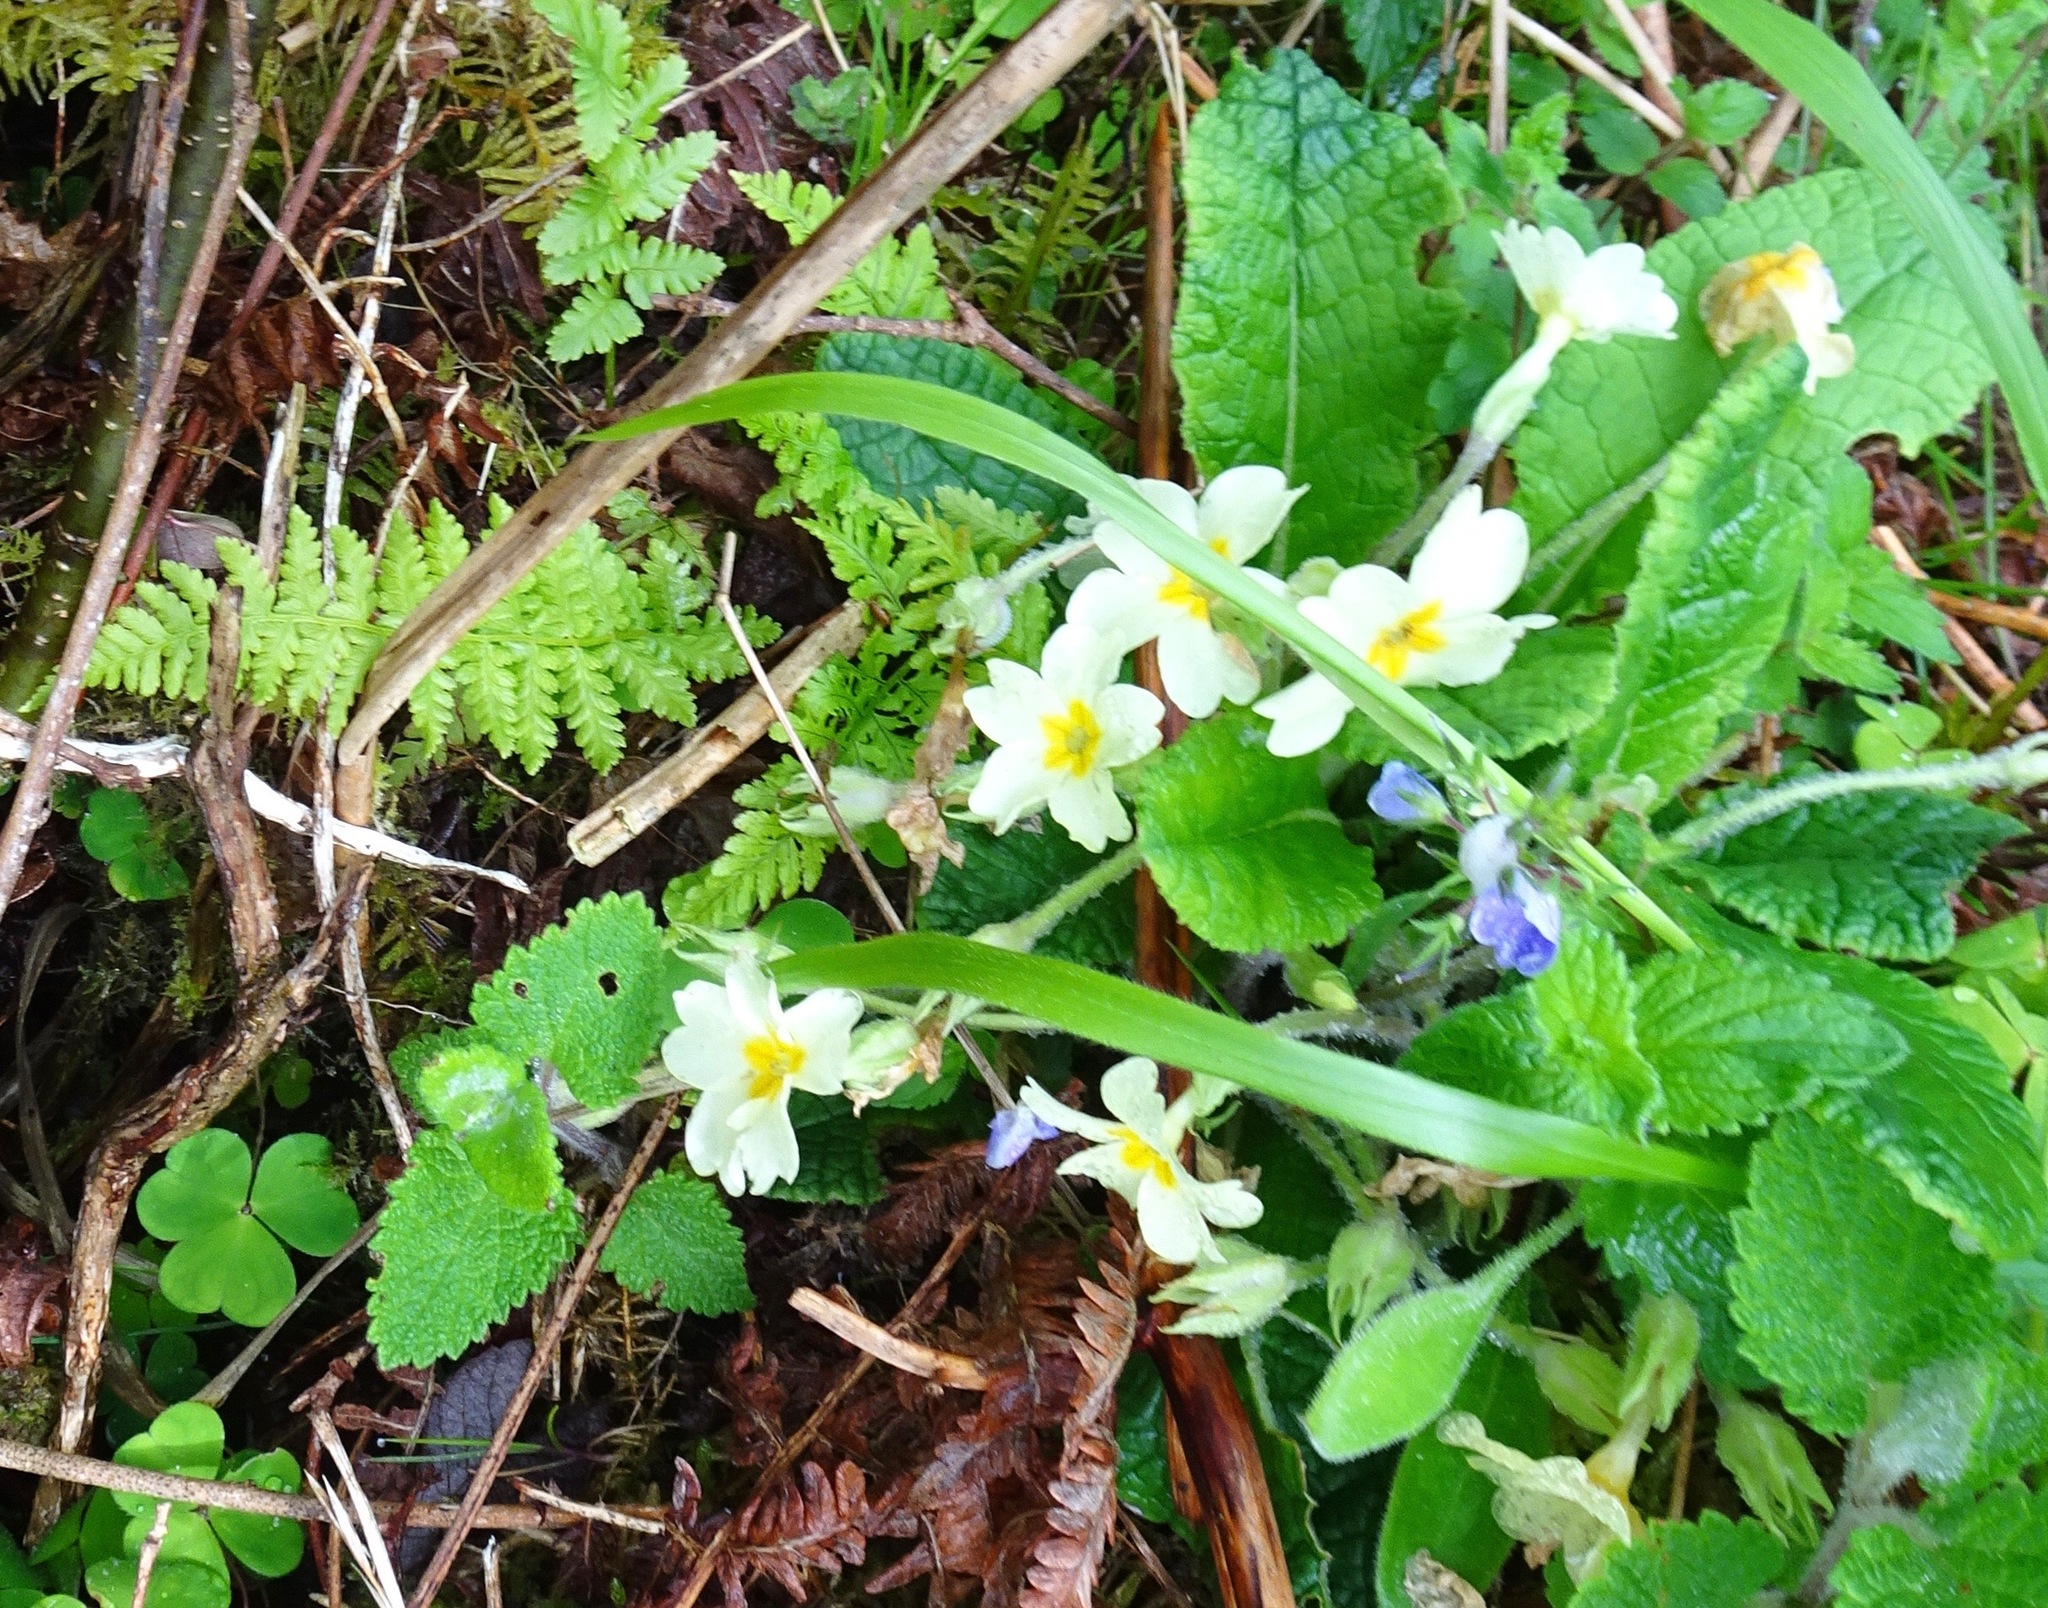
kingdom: Plantae
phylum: Tracheophyta
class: Magnoliopsida
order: Ericales
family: Primulaceae
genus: Primula
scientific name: Primula vulgaris
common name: Primrose
